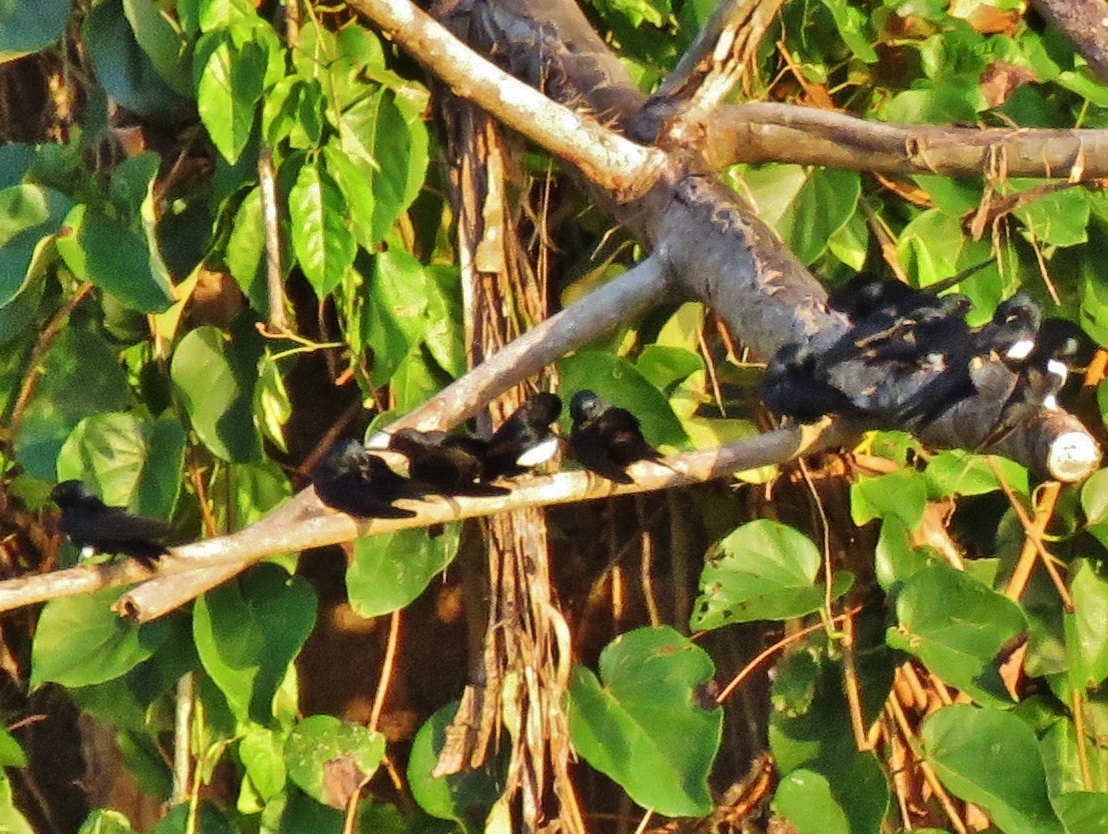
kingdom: Animalia
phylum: Chordata
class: Aves
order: Passeriformes
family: Hirundinidae
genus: Atticora
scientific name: Atticora fasciata
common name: White-banded swallow
